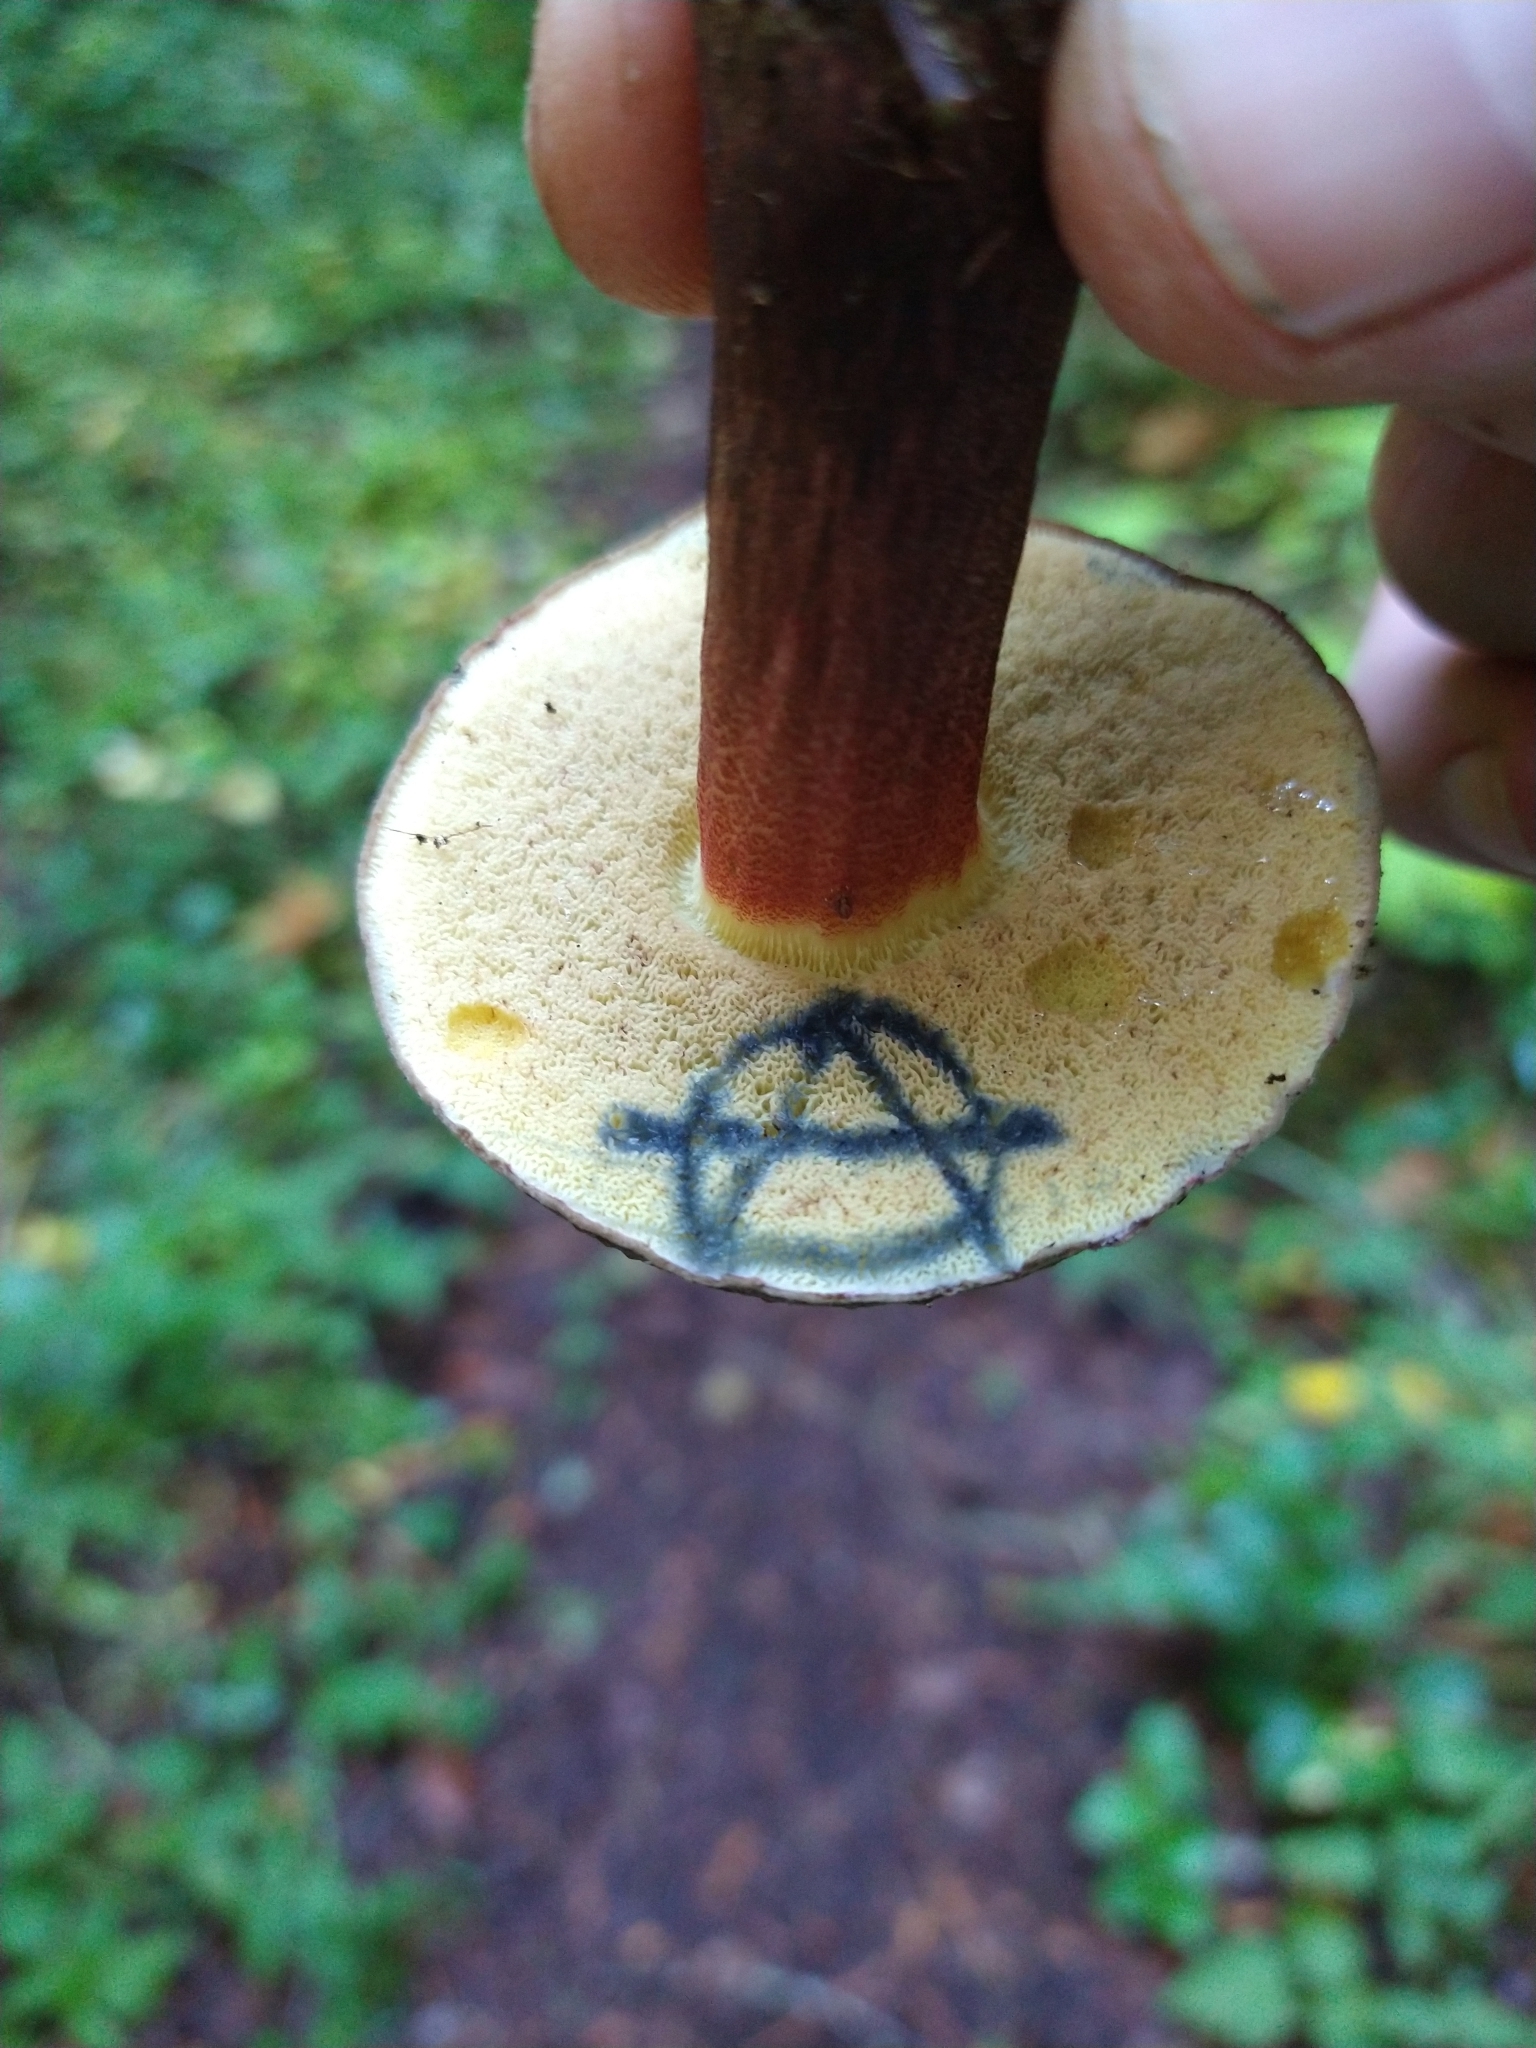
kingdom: Fungi
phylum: Basidiomycota
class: Agaricomycetes
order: Boletales
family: Boletaceae
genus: Xerocomellus
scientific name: Xerocomellus mendocinensis
